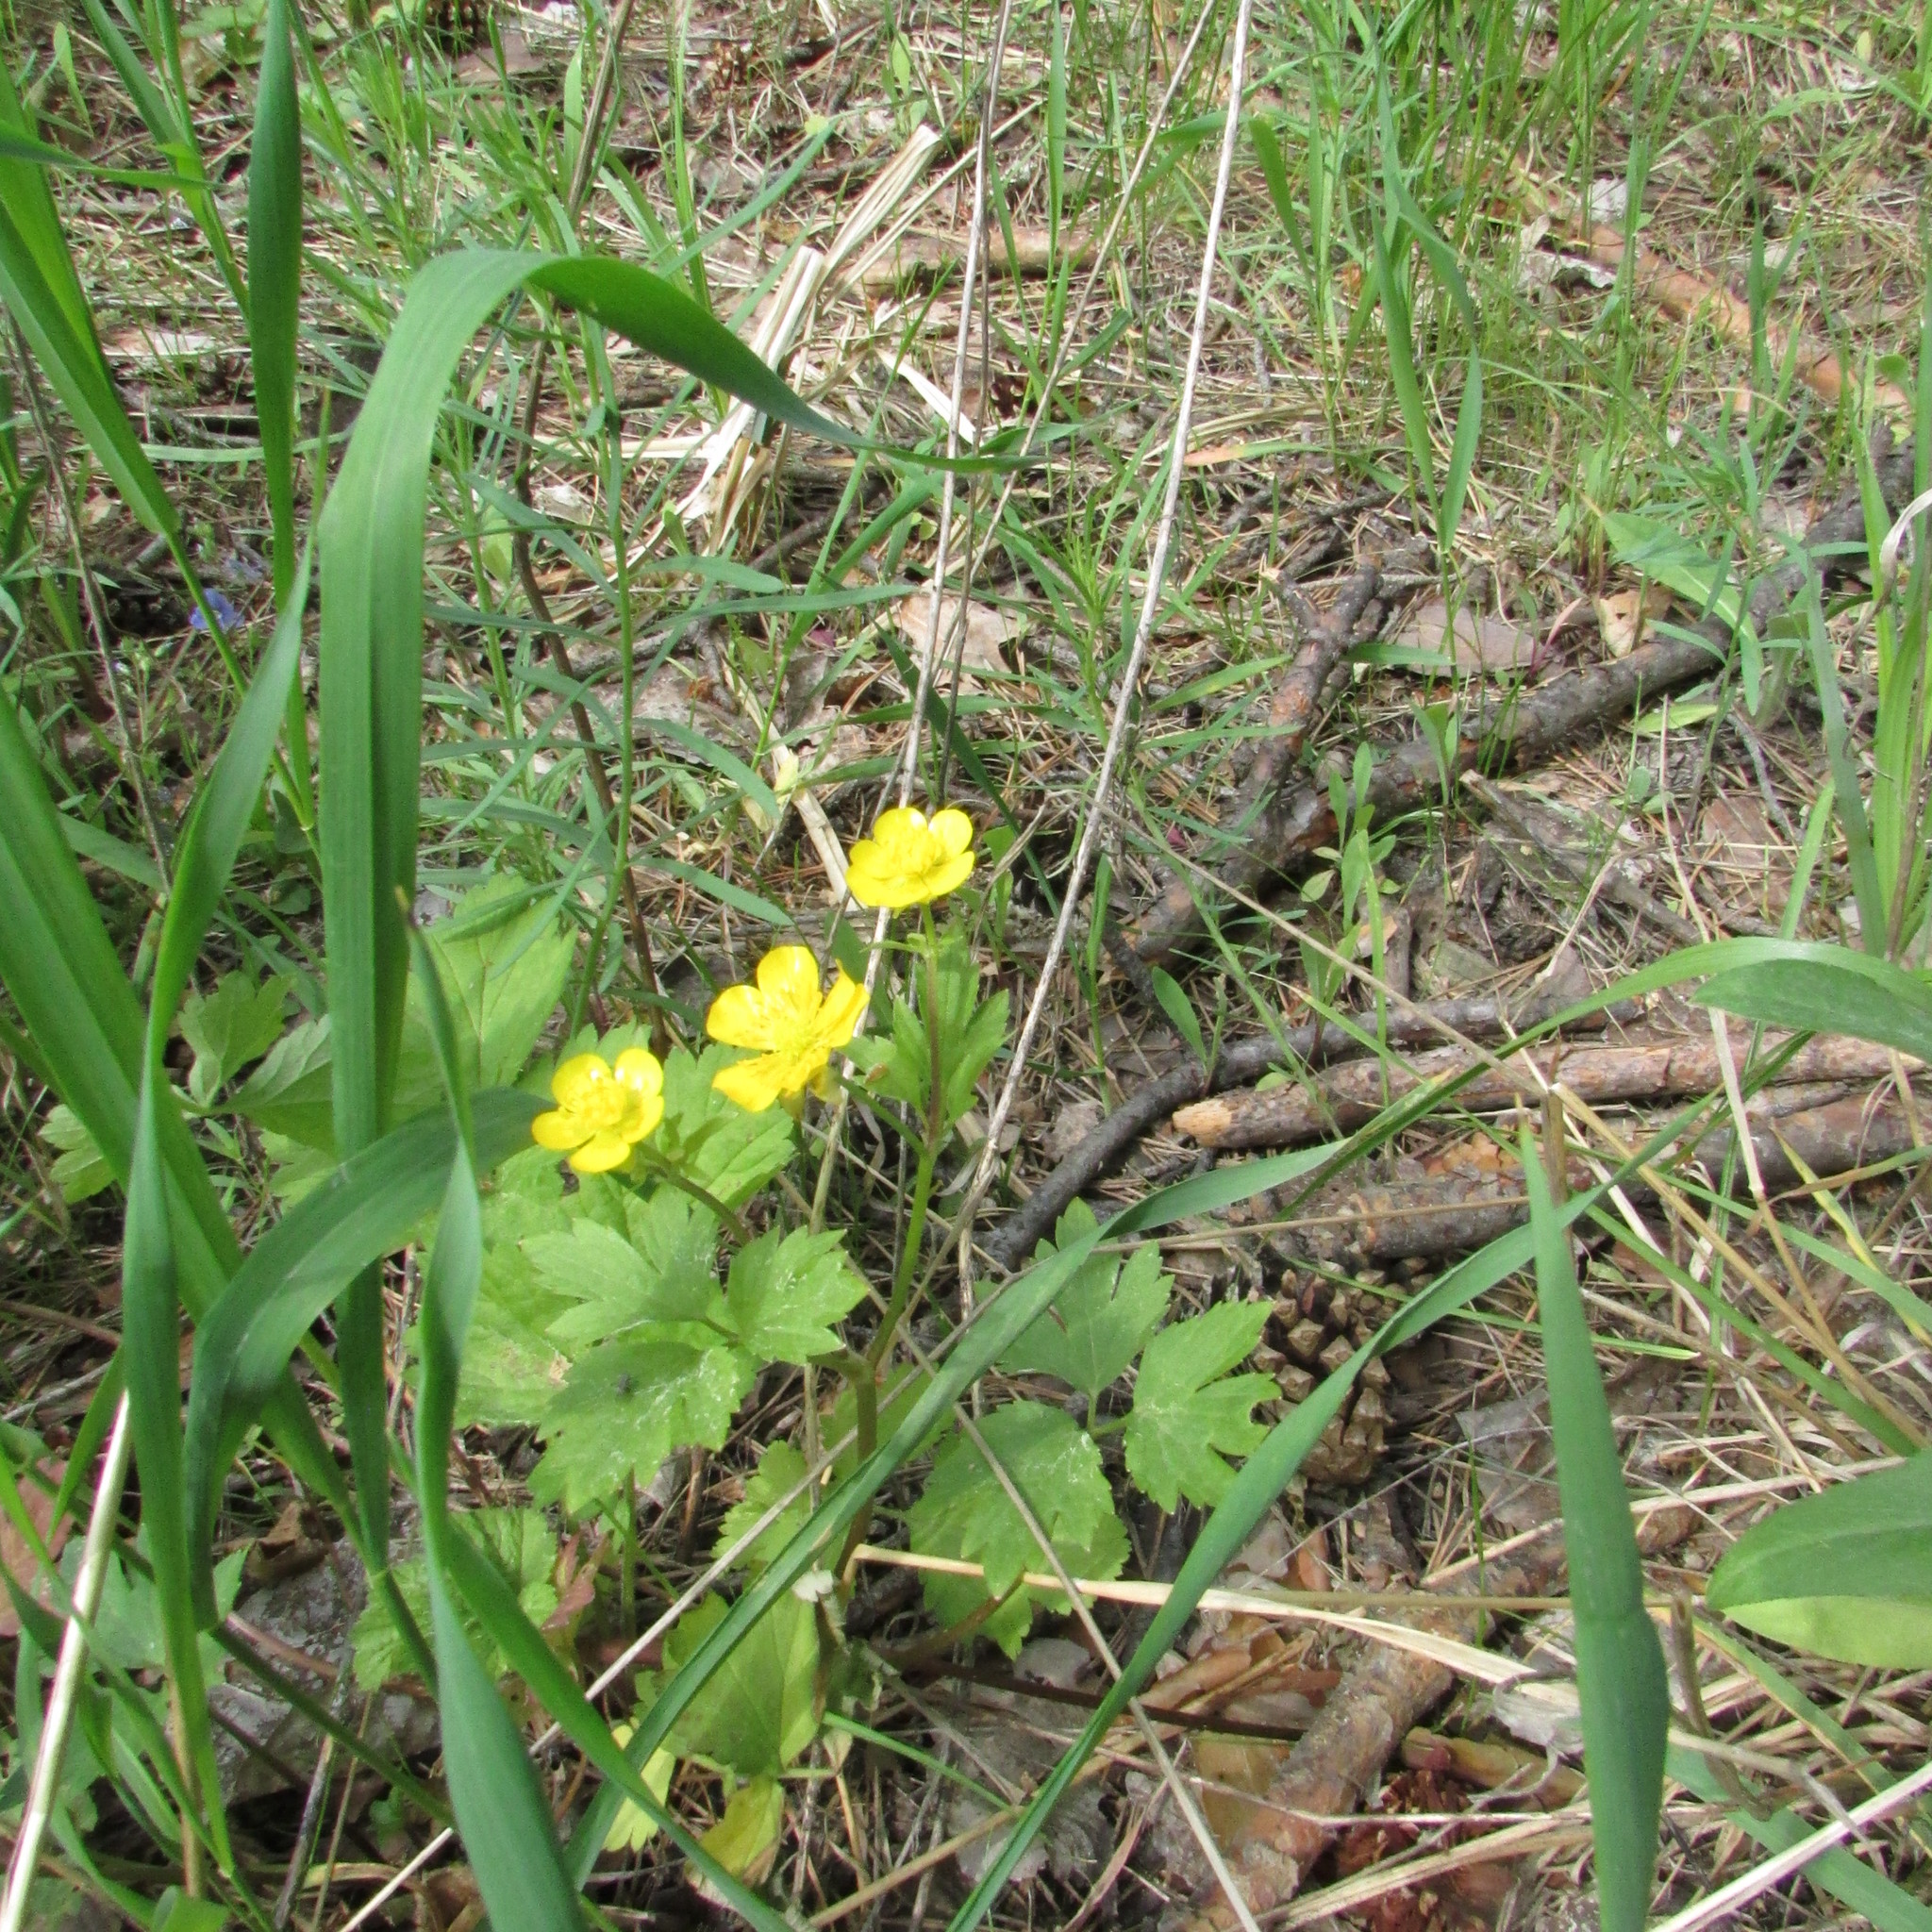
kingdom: Plantae
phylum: Tracheophyta
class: Magnoliopsida
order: Ranunculales
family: Ranunculaceae
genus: Ranunculus
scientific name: Ranunculus repens
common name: Creeping buttercup
